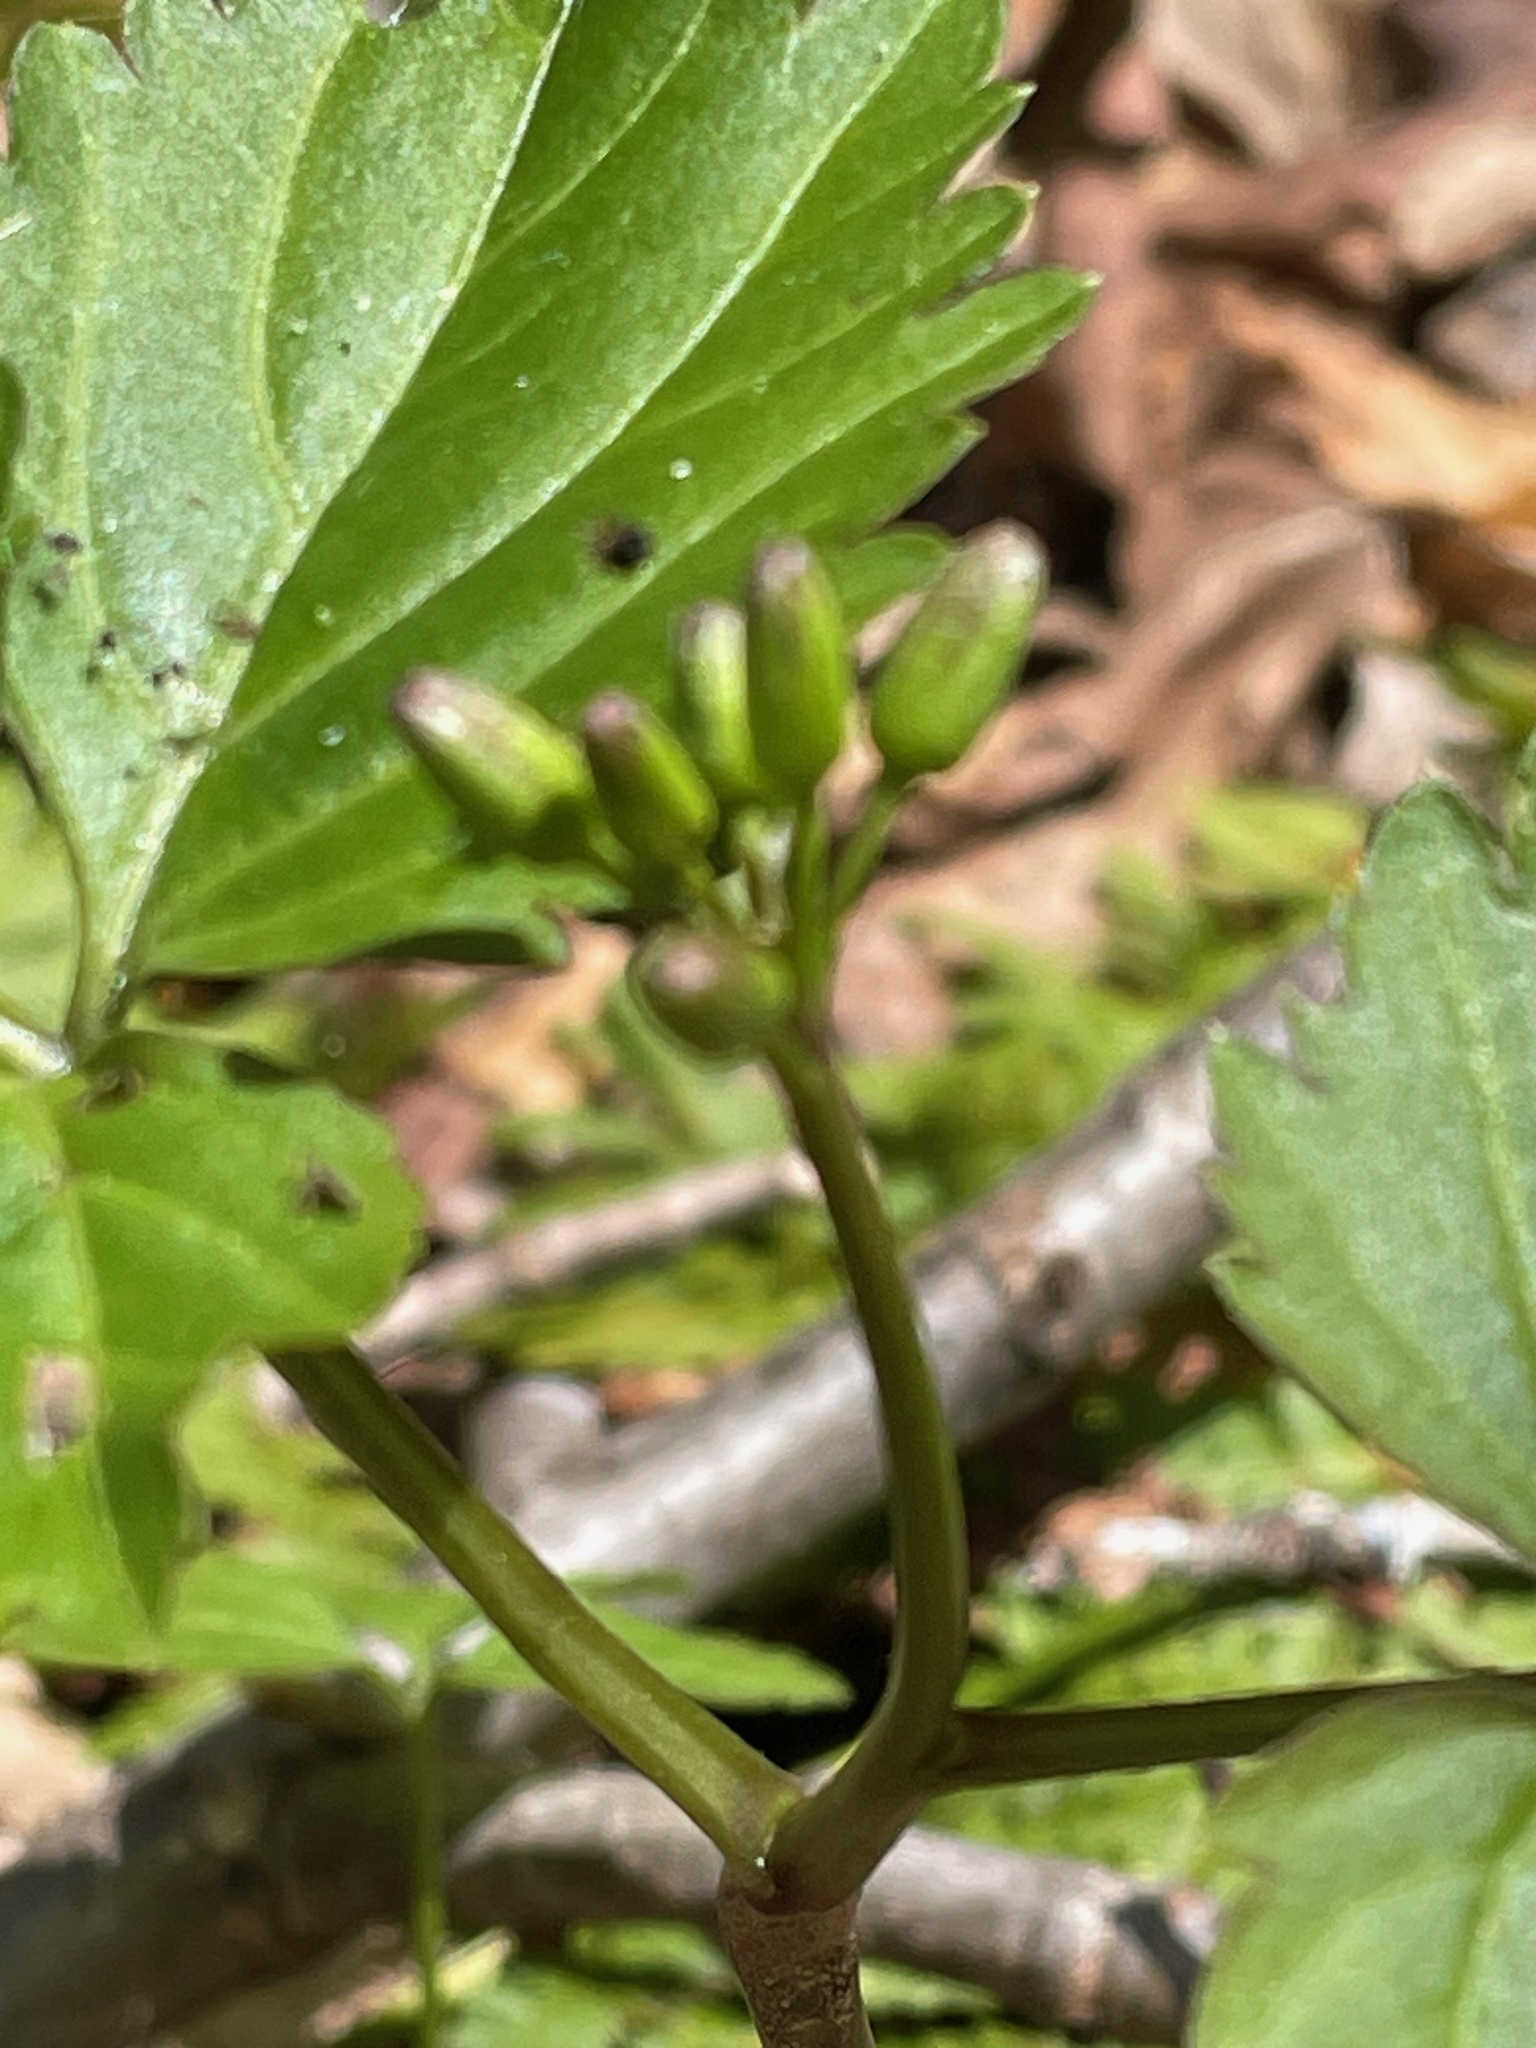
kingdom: Plantae
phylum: Tracheophyta
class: Magnoliopsida
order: Brassicales
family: Brassicaceae
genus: Cardamine
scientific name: Cardamine diphylla
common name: Broad-leaved toothwort
